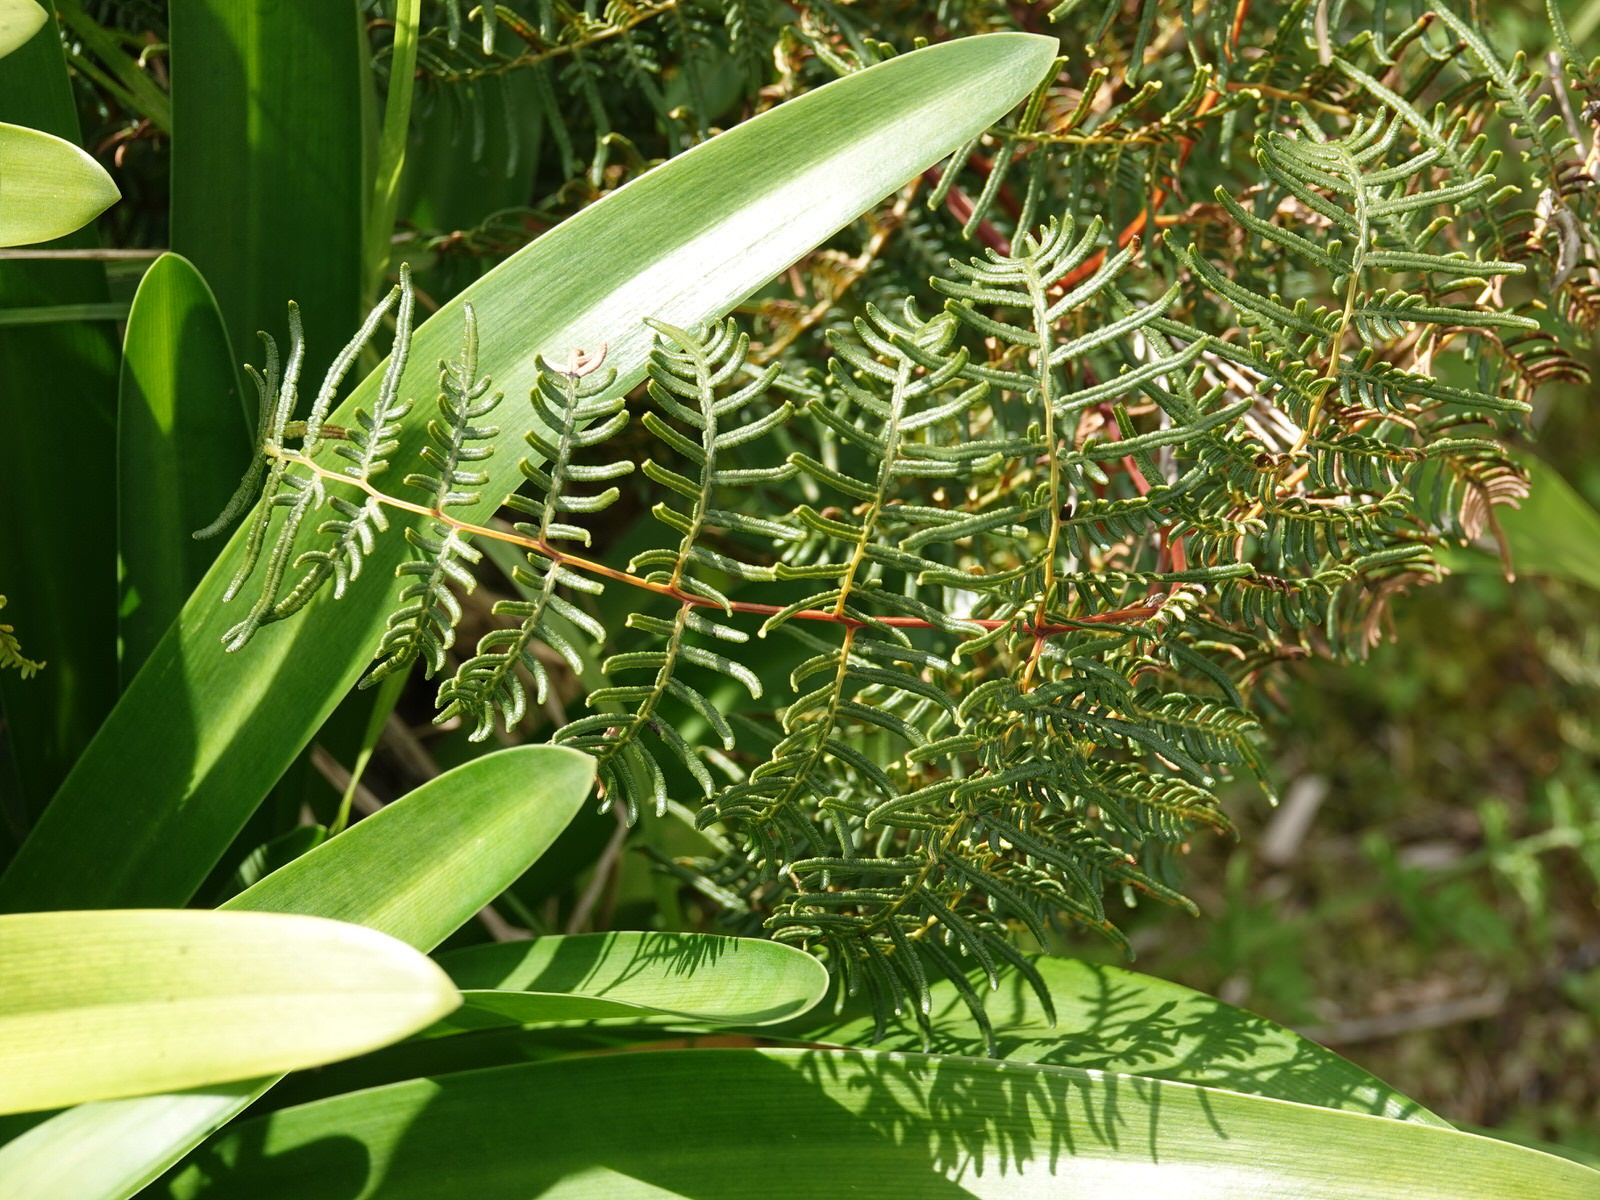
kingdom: Plantae
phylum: Tracheophyta
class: Polypodiopsida
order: Polypodiales
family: Dennstaedtiaceae
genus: Pteridium
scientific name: Pteridium esculentum
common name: Bracken fern
